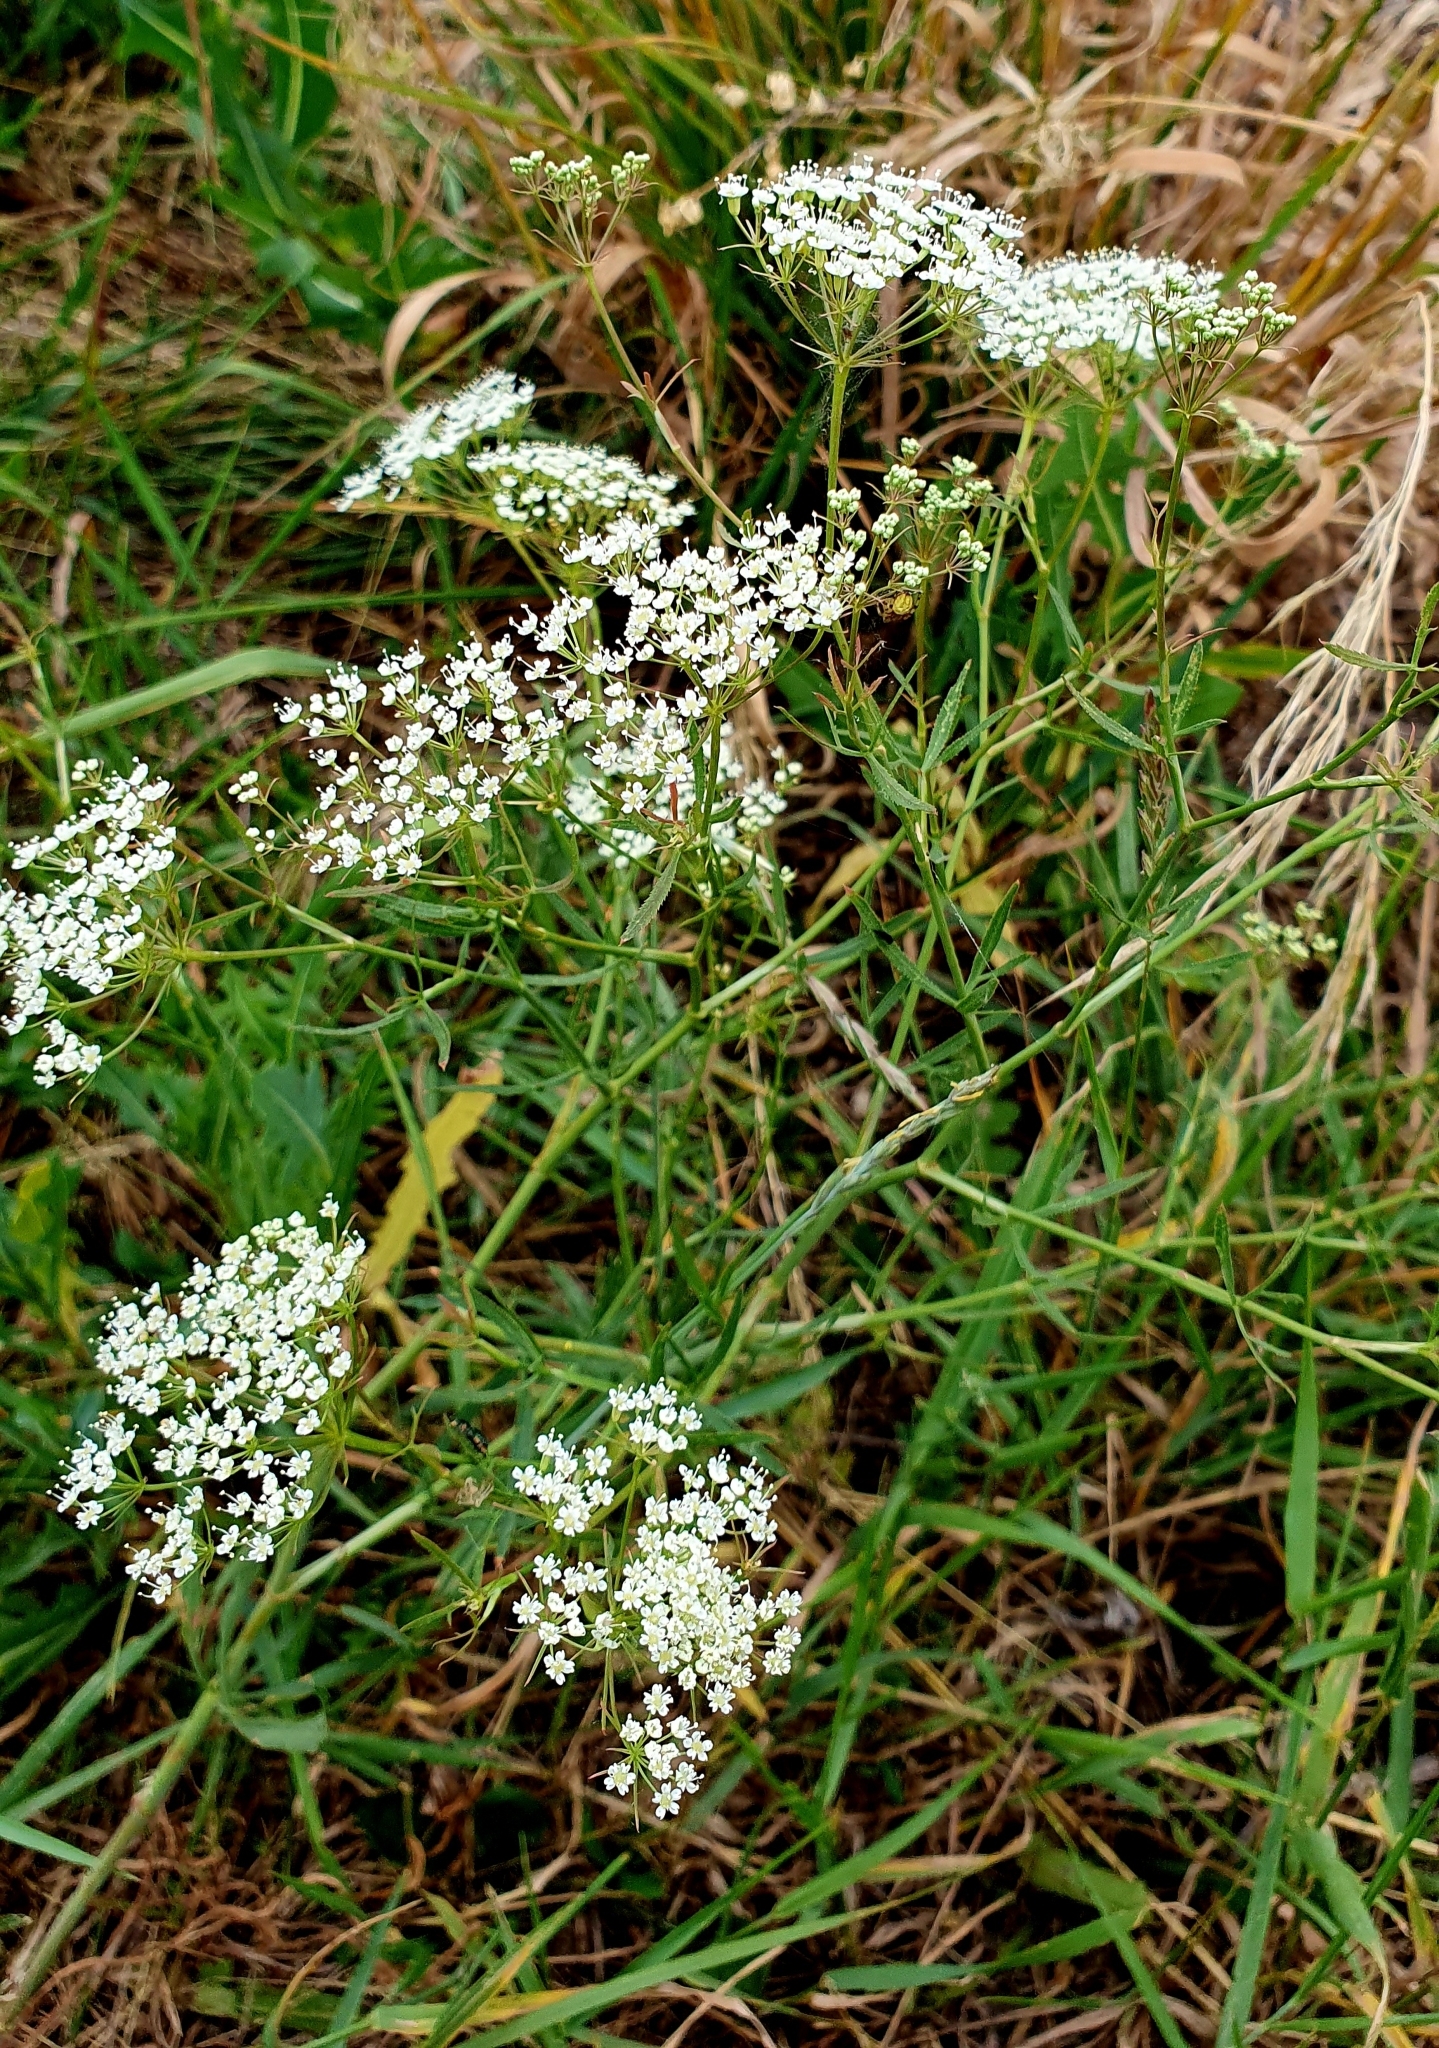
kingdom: Plantae
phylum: Tracheophyta
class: Magnoliopsida
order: Apiales
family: Apiaceae
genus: Falcaria
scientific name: Falcaria vulgaris
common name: Longleaf
